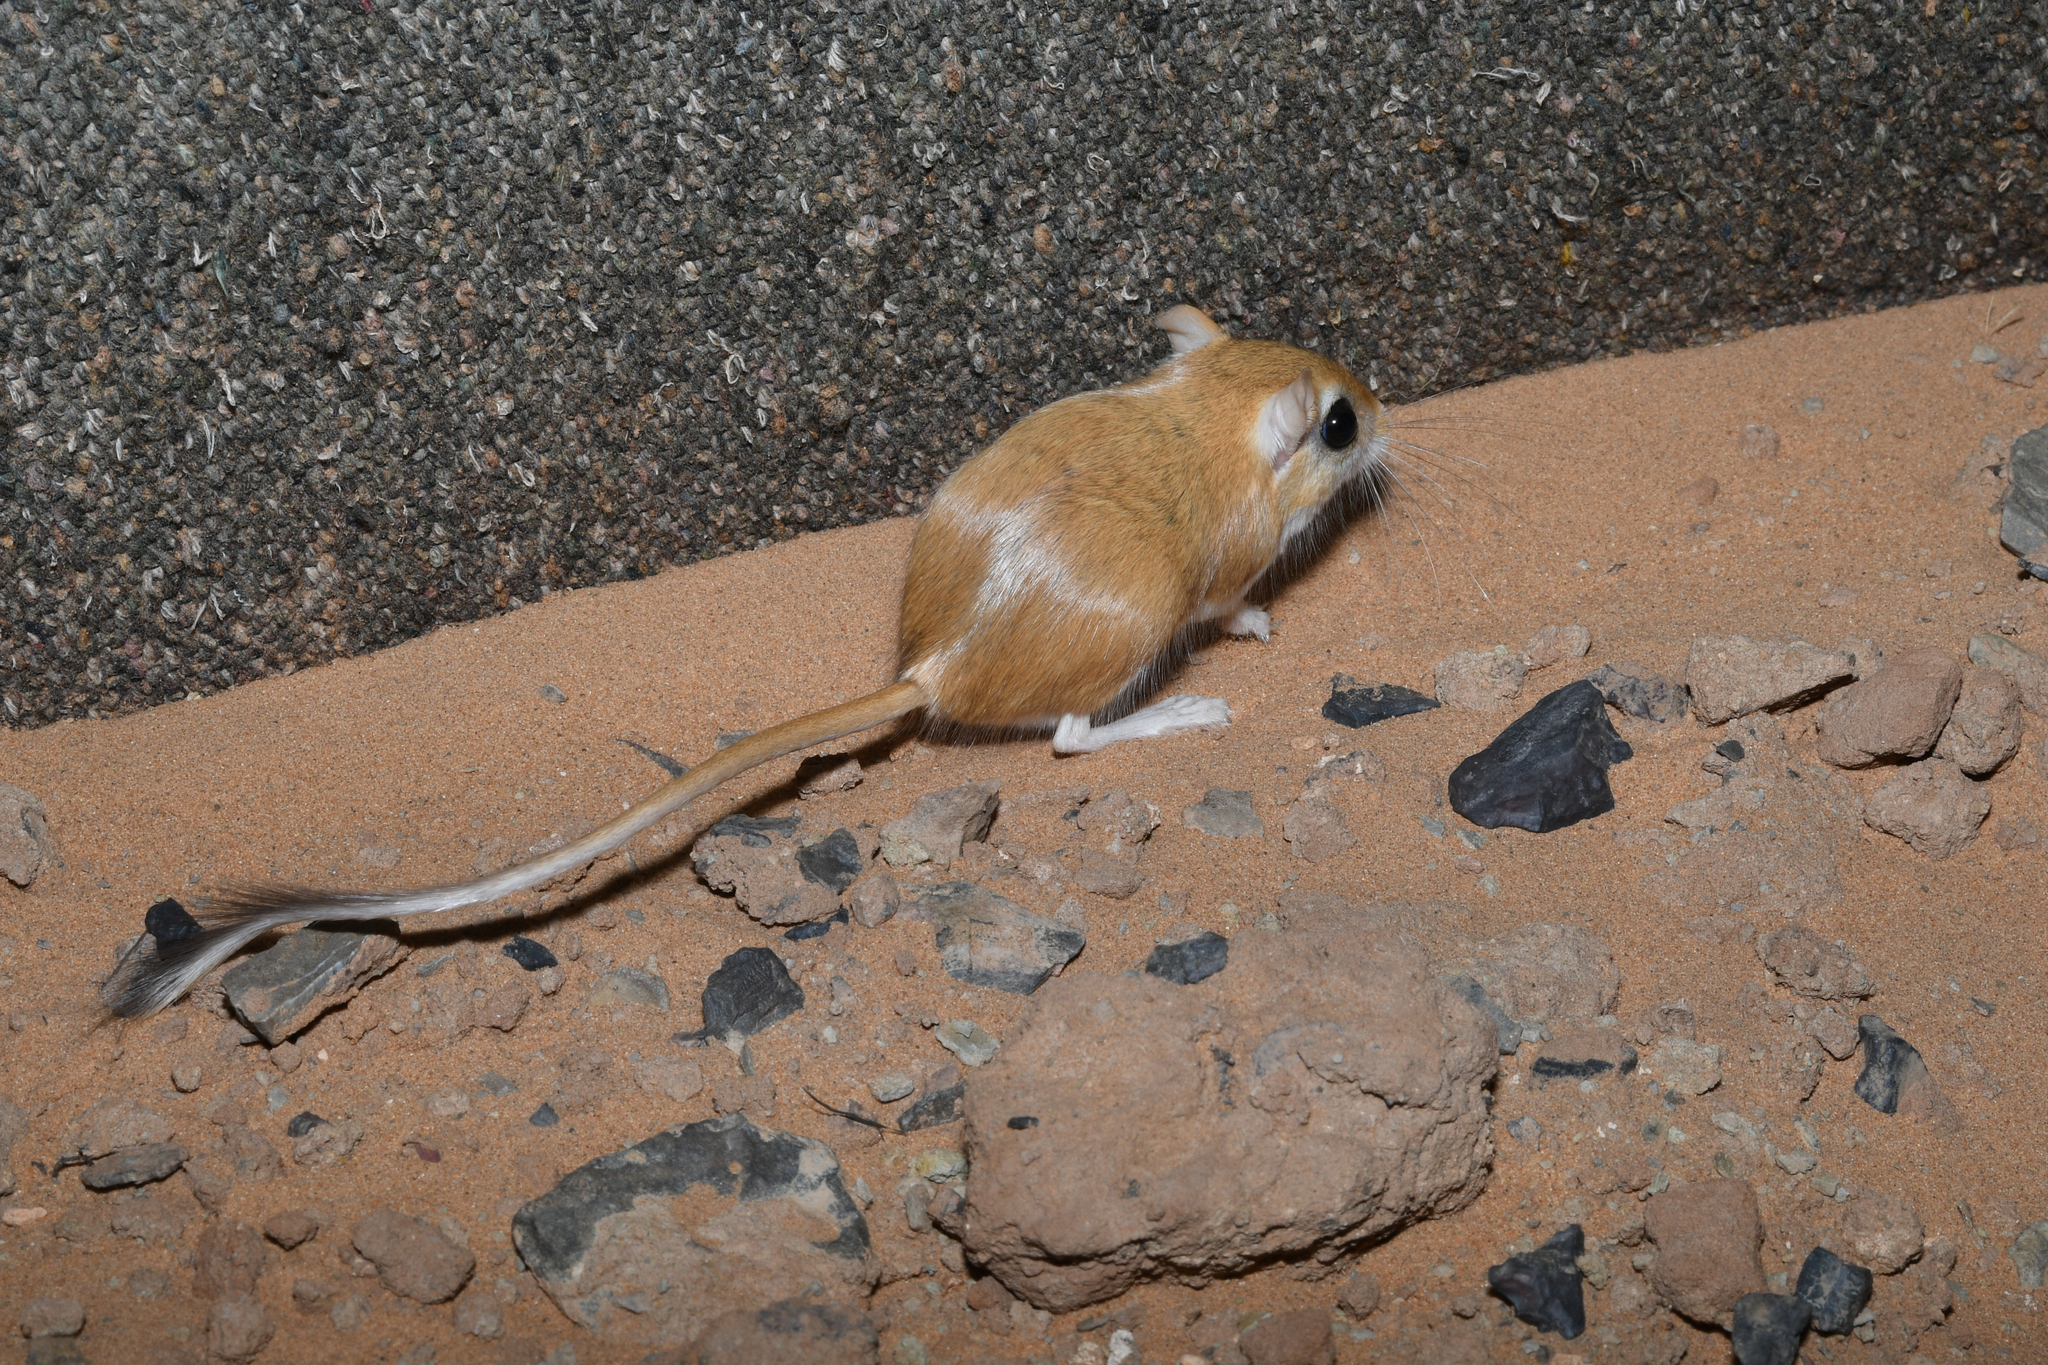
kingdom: Animalia
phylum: Chordata
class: Mammalia
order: Rodentia
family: Muridae
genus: Gerbillus
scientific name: Gerbillus gerbillus
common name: Lesser egyptian gerbil
